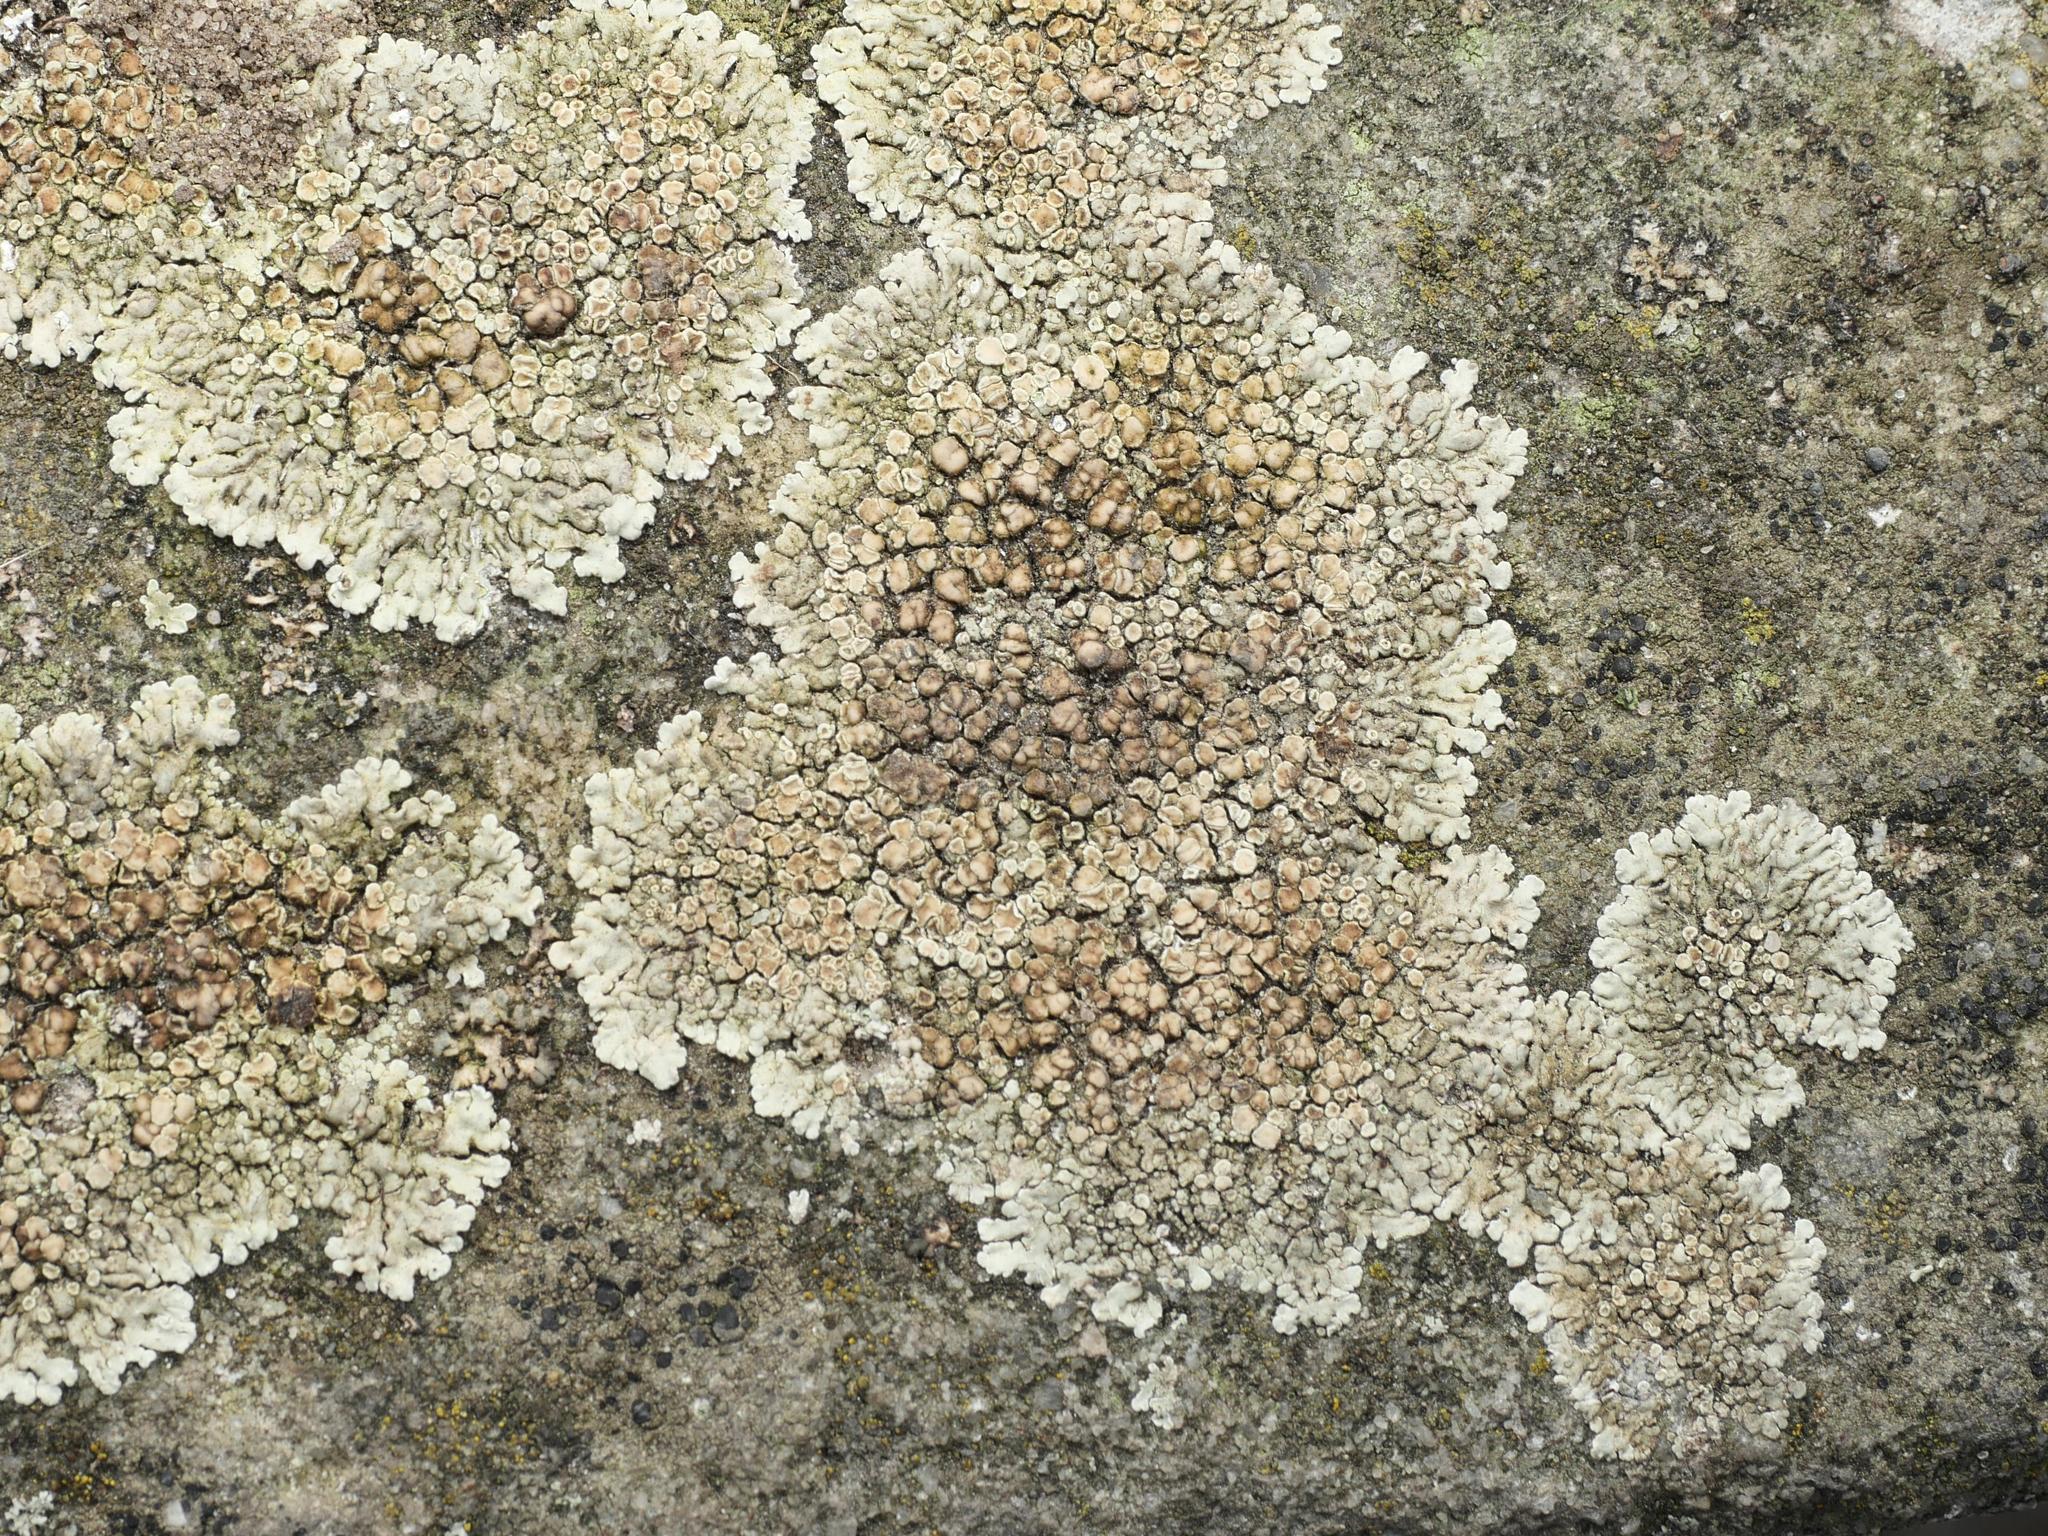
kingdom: Fungi
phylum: Ascomycota
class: Lecanoromycetes
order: Lecanorales
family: Lecanoraceae
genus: Protoparmeliopsis
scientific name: Protoparmeliopsis muralis
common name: Stonewall rim lichen
